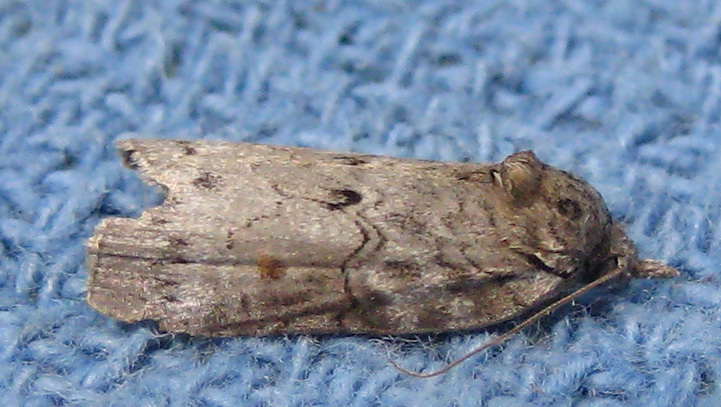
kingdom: Animalia
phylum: Arthropoda
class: Insecta
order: Lepidoptera
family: Nolidae
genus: Nycteola
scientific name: Nycteola metaspilella
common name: Forgotten frigid owlet
